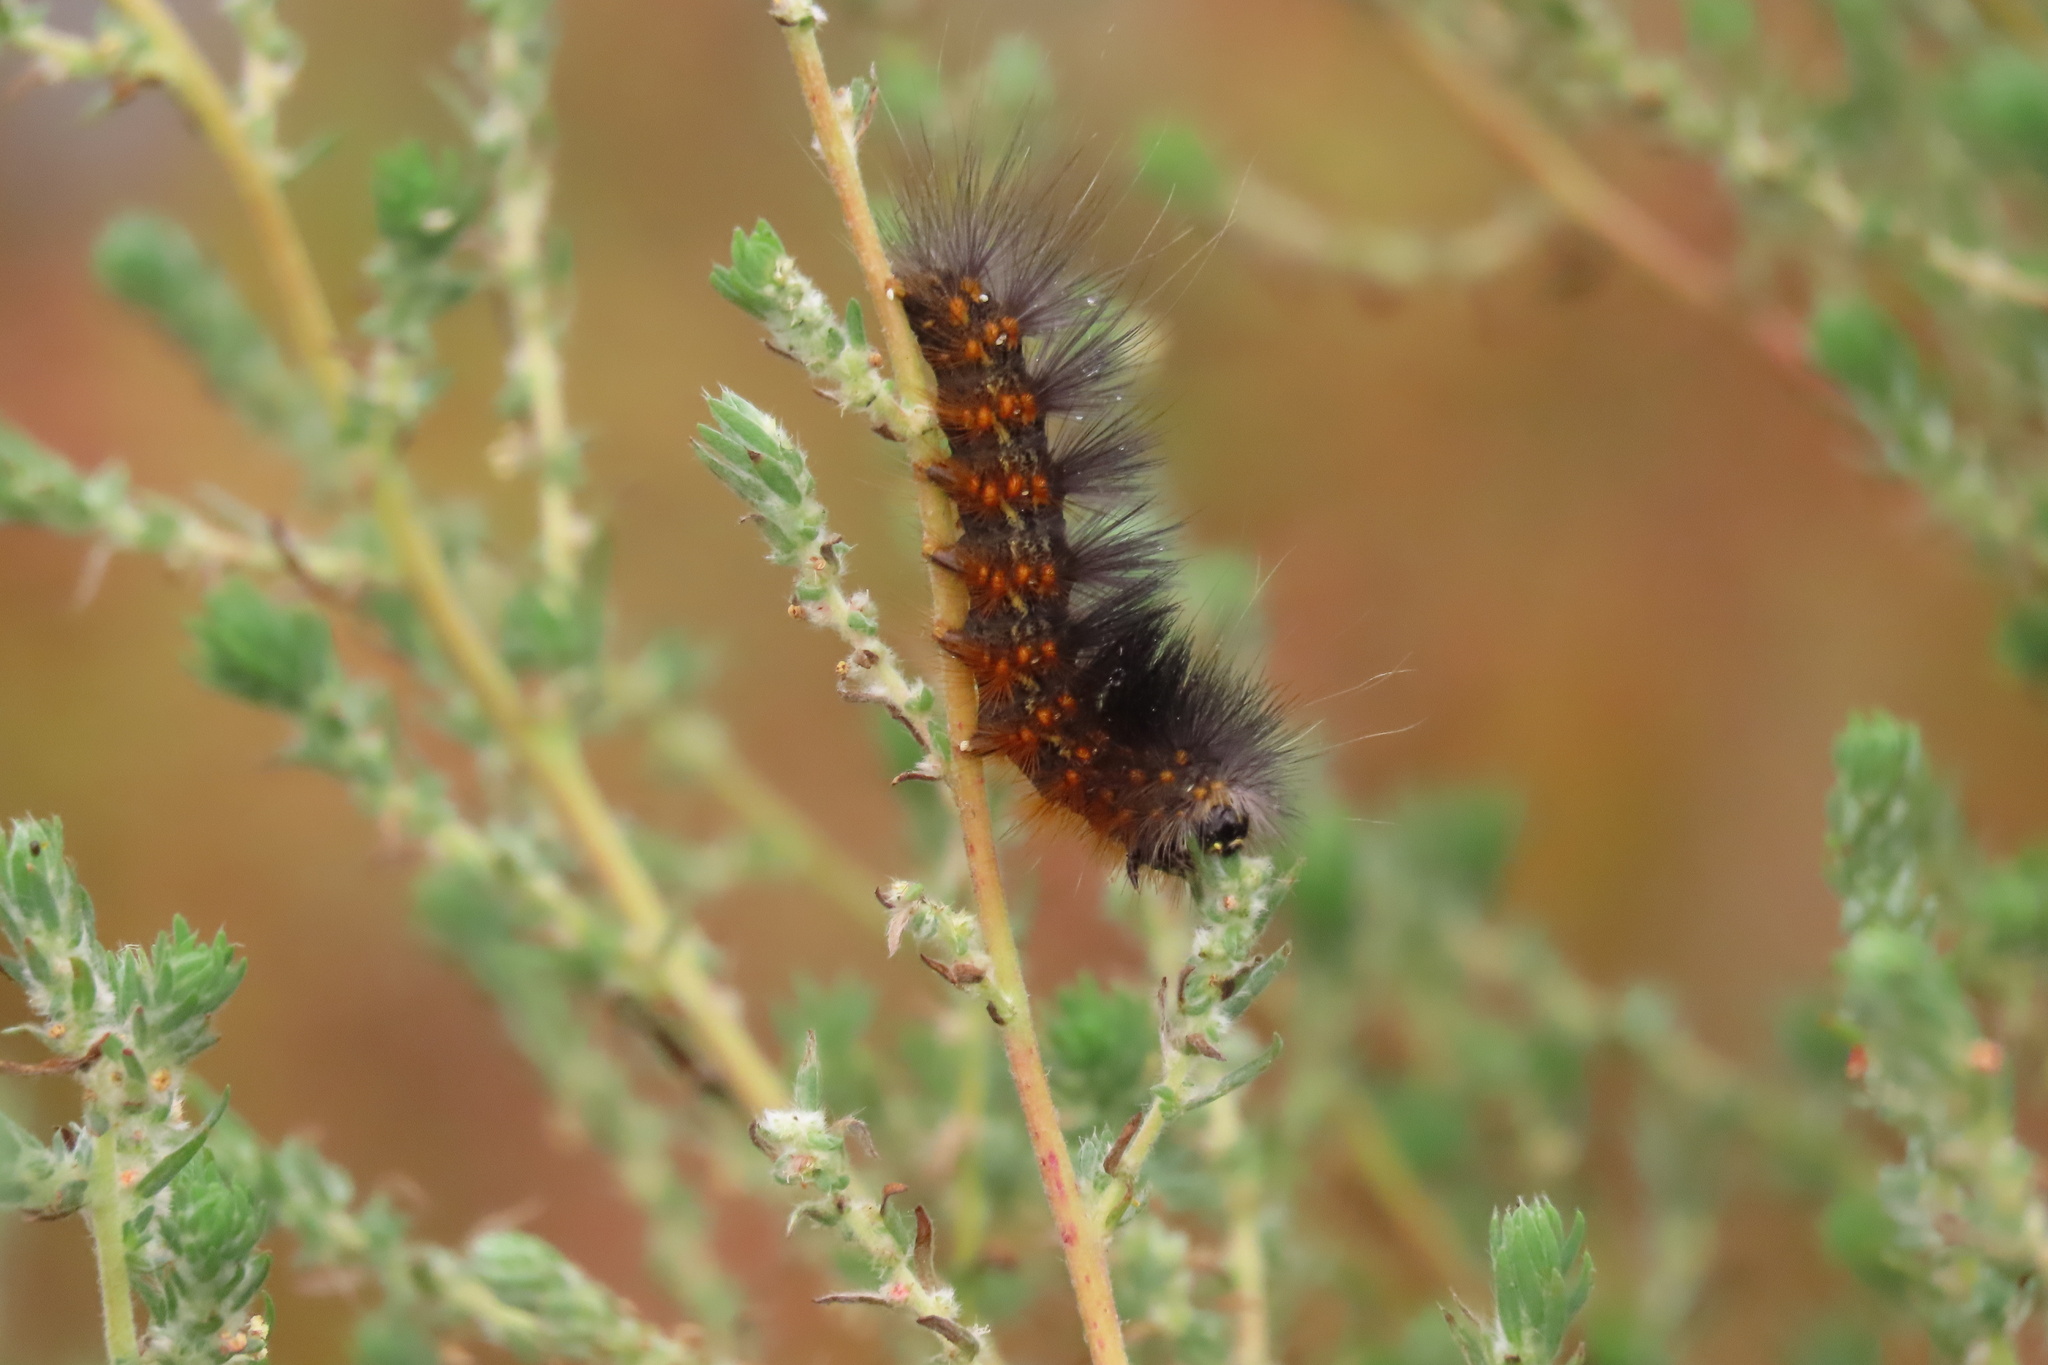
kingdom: Animalia
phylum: Arthropoda
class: Insecta
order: Lepidoptera
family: Erebidae
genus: Estigmene
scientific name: Estigmene acrea
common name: Salt marsh moth
